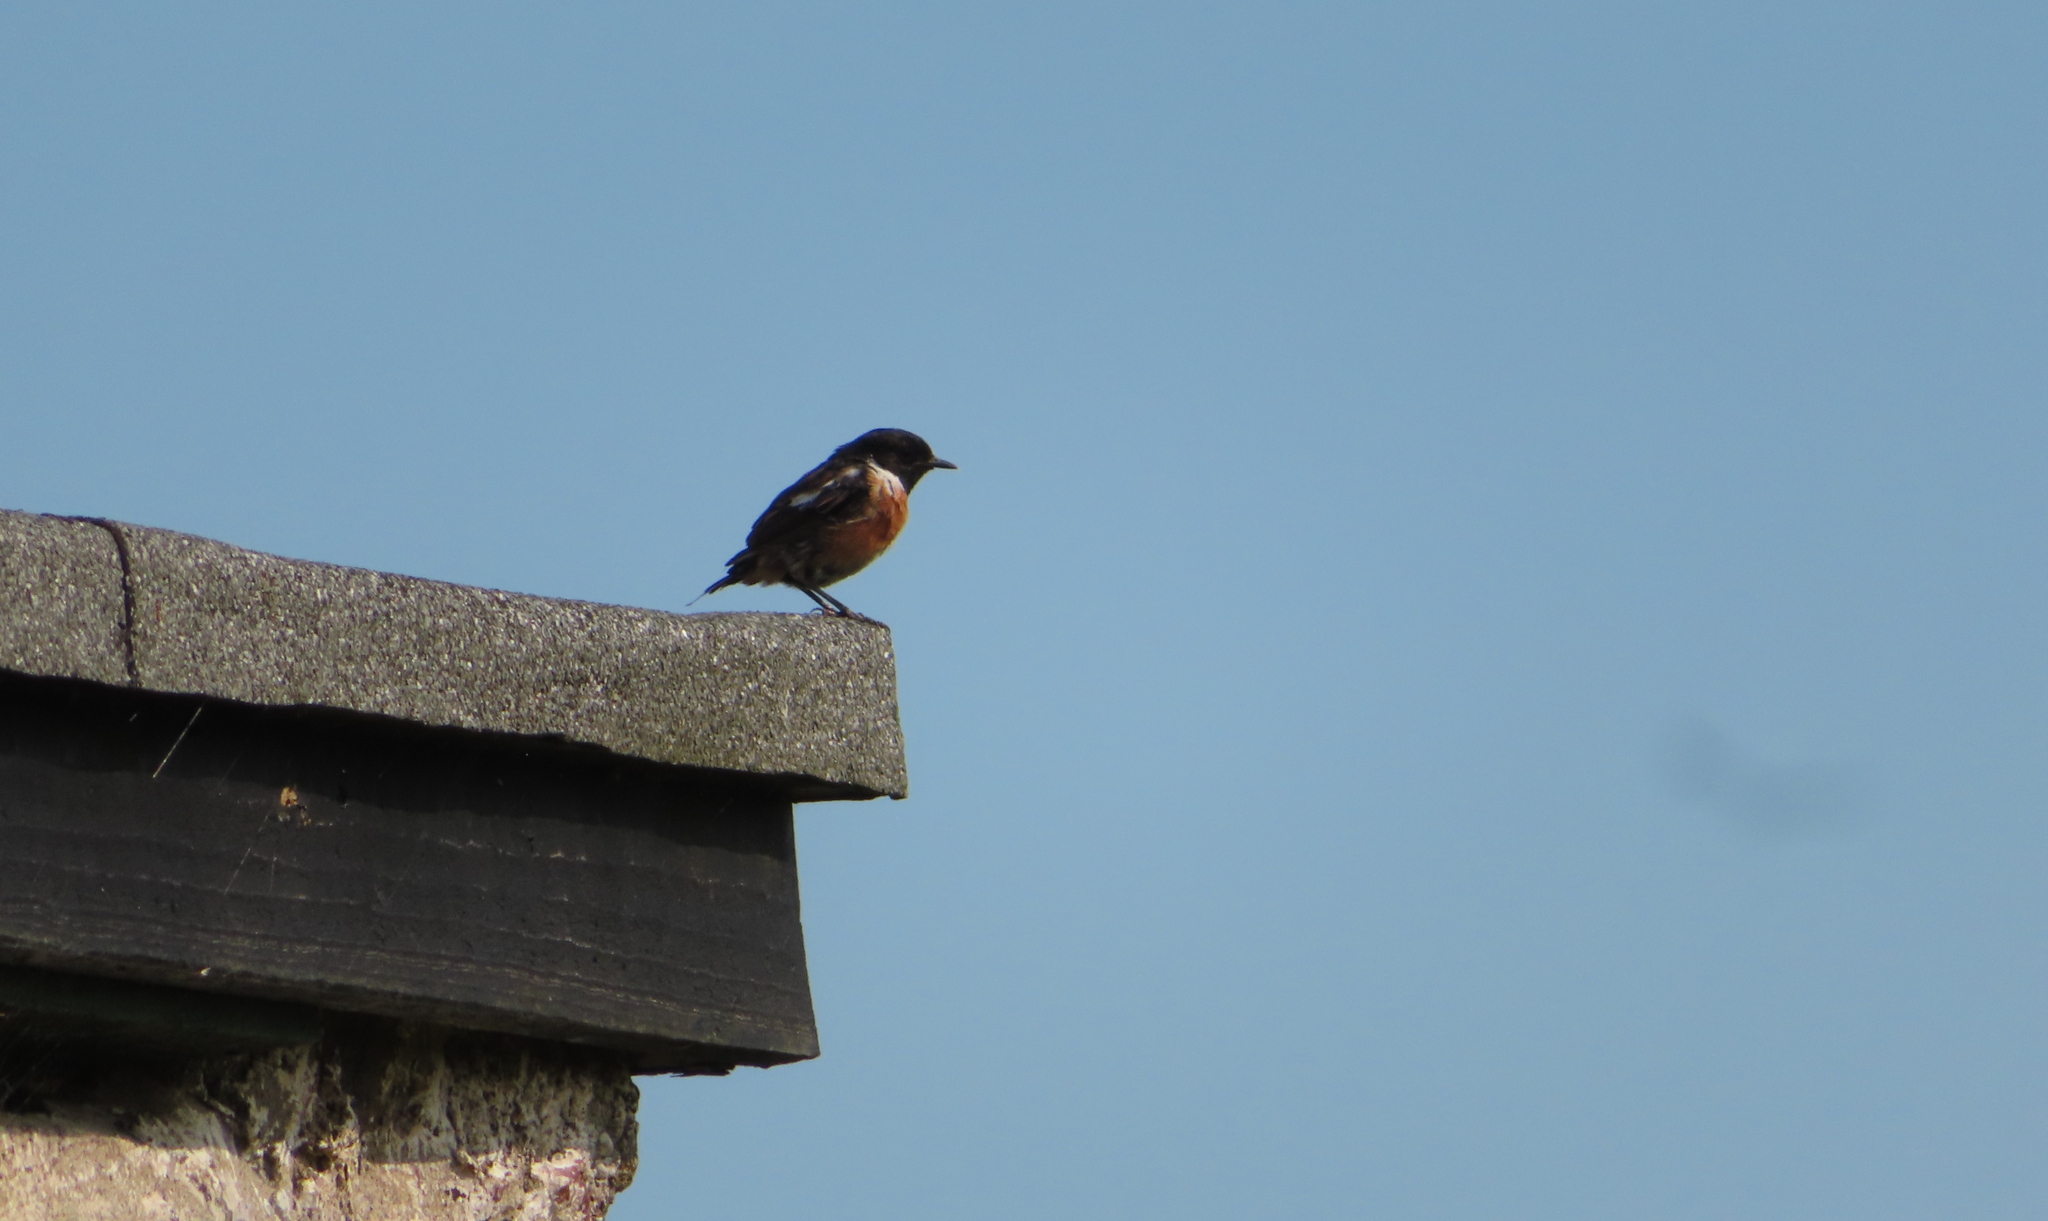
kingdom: Animalia
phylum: Chordata
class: Aves
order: Passeriformes
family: Muscicapidae
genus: Saxicola
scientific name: Saxicola rubicola
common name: European stonechat
